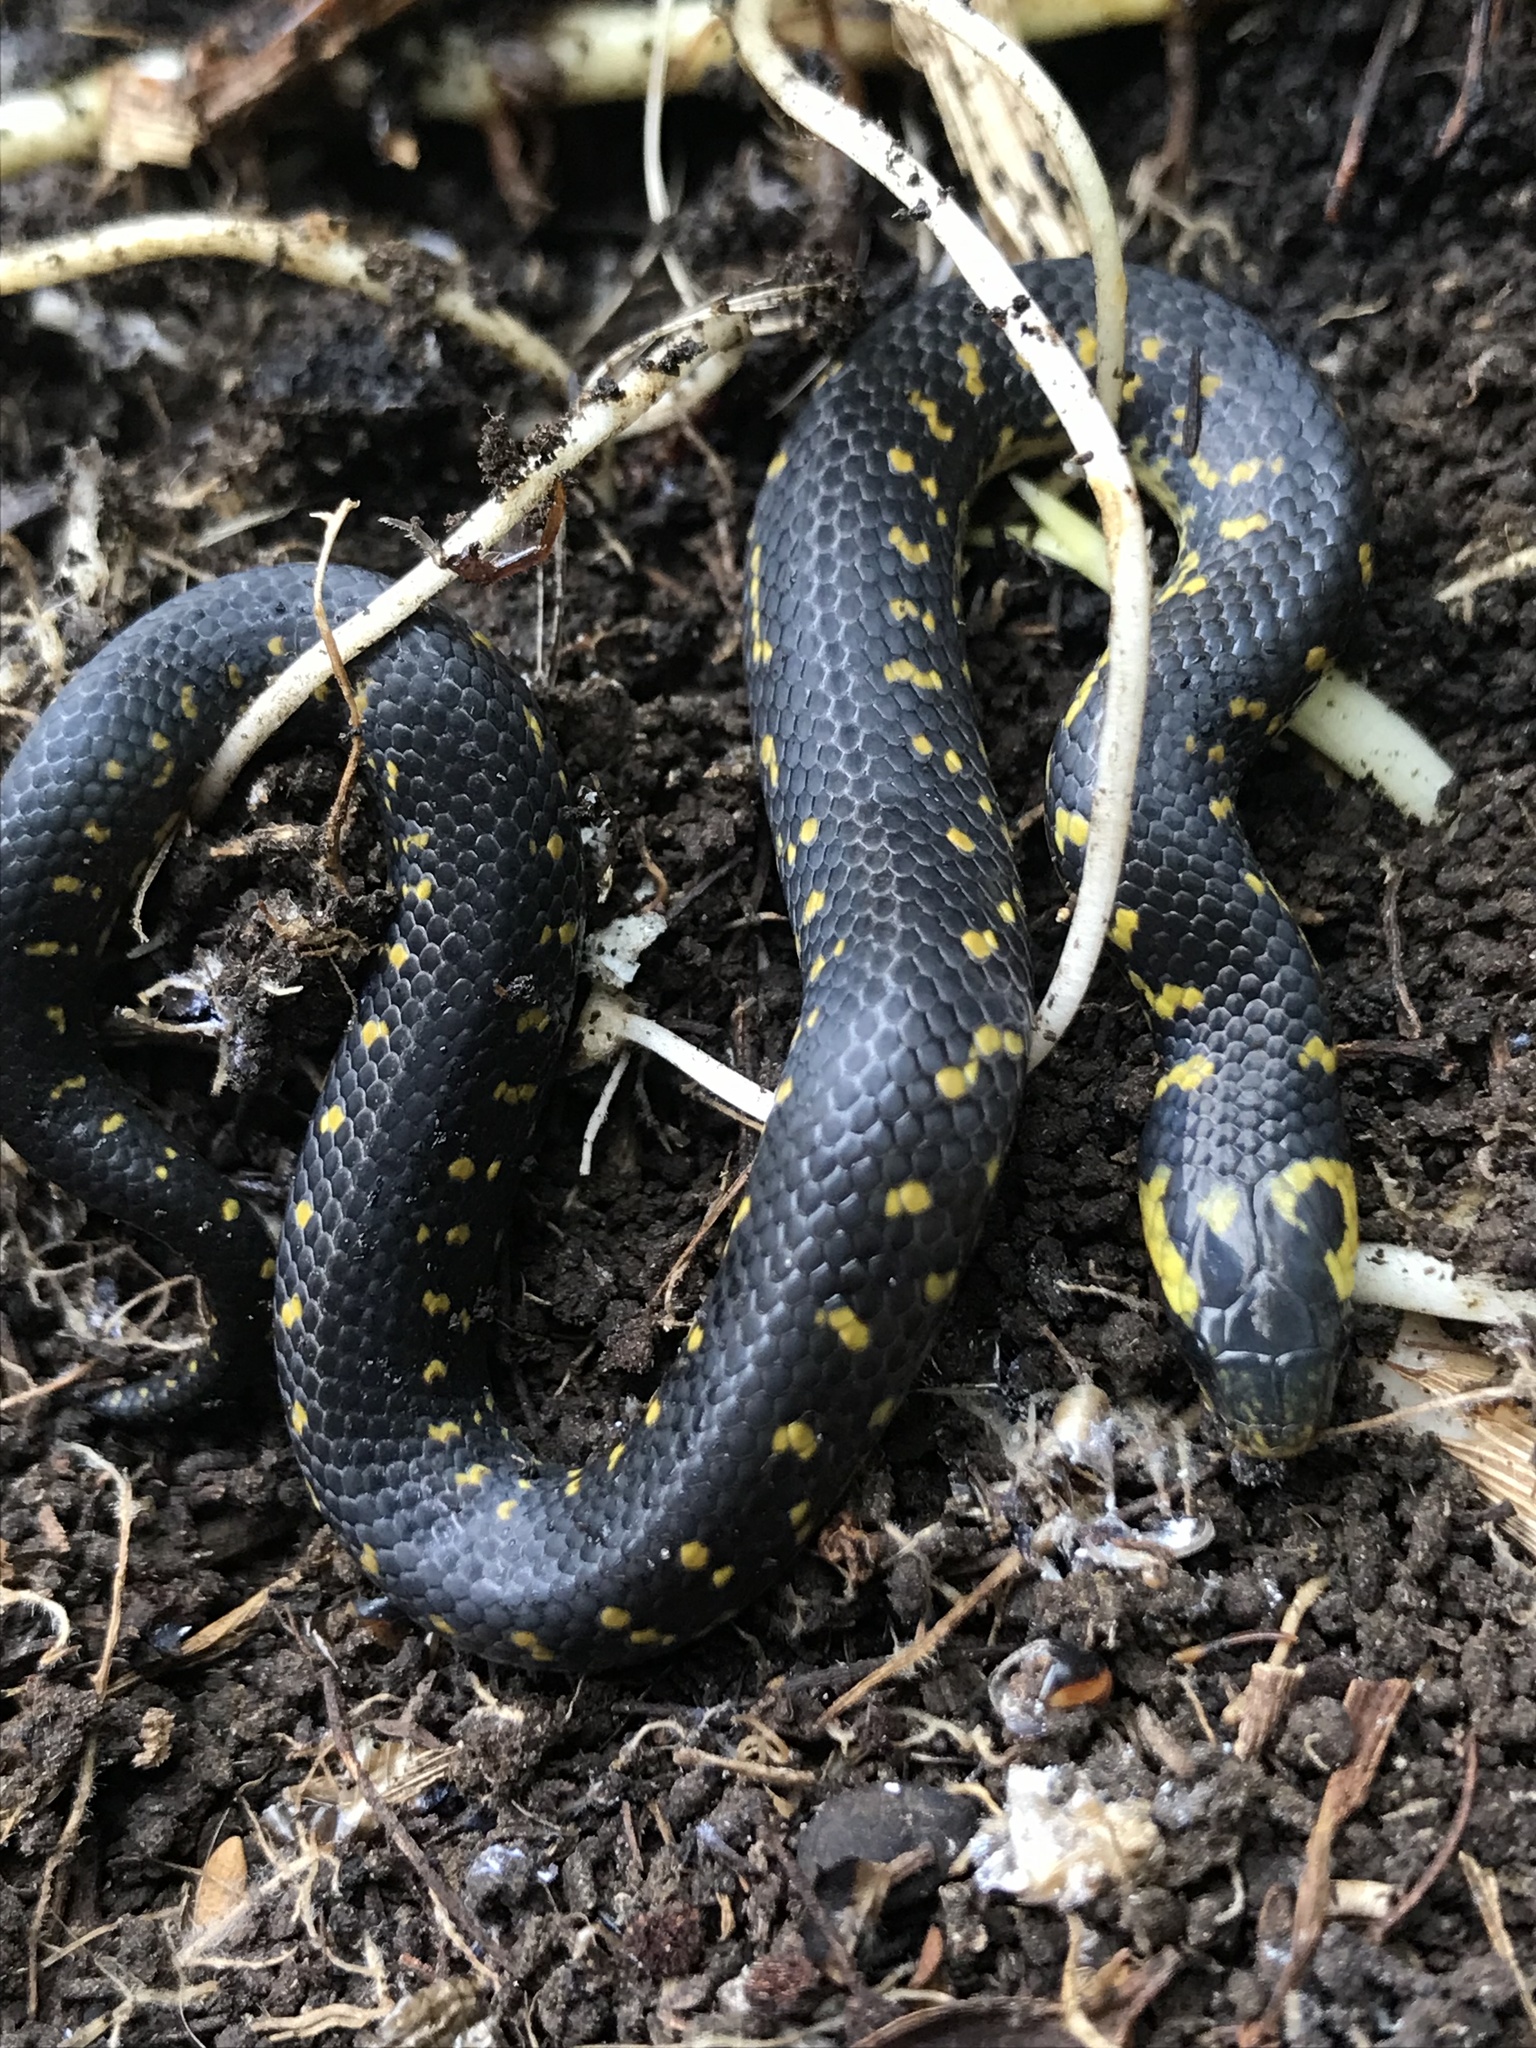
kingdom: Animalia
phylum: Chordata
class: Squamata
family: Colubridae
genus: Atractus
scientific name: Atractus crassicaudatus
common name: Thickhead ground snake
